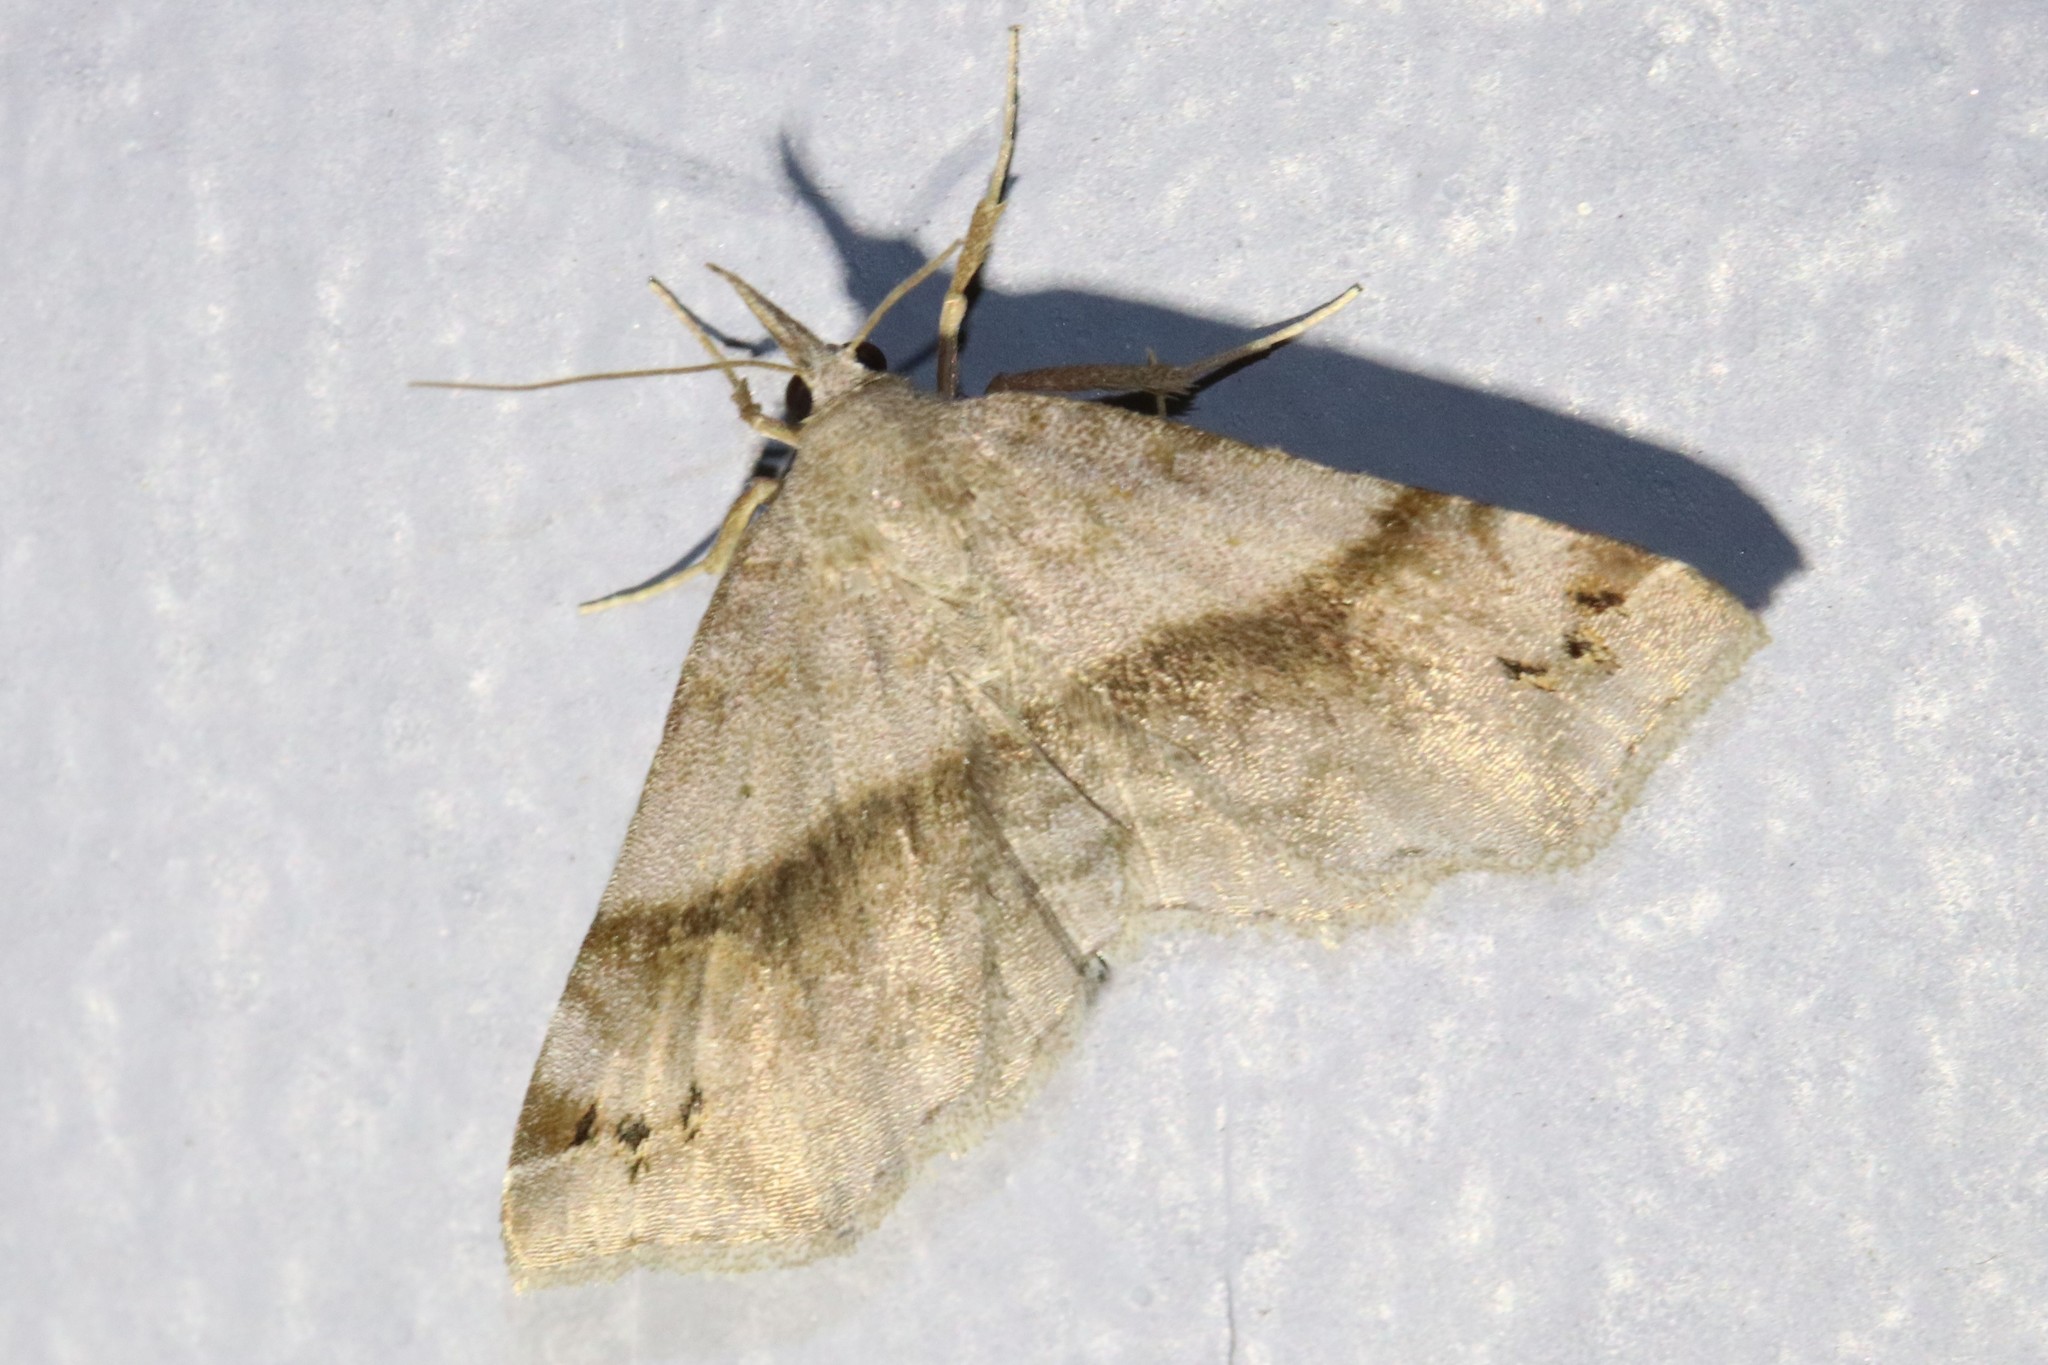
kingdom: Animalia
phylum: Arthropoda
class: Insecta
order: Lepidoptera
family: Erebidae
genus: Spargaloma
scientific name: Spargaloma sexpunctata
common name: Six-spotted gray
